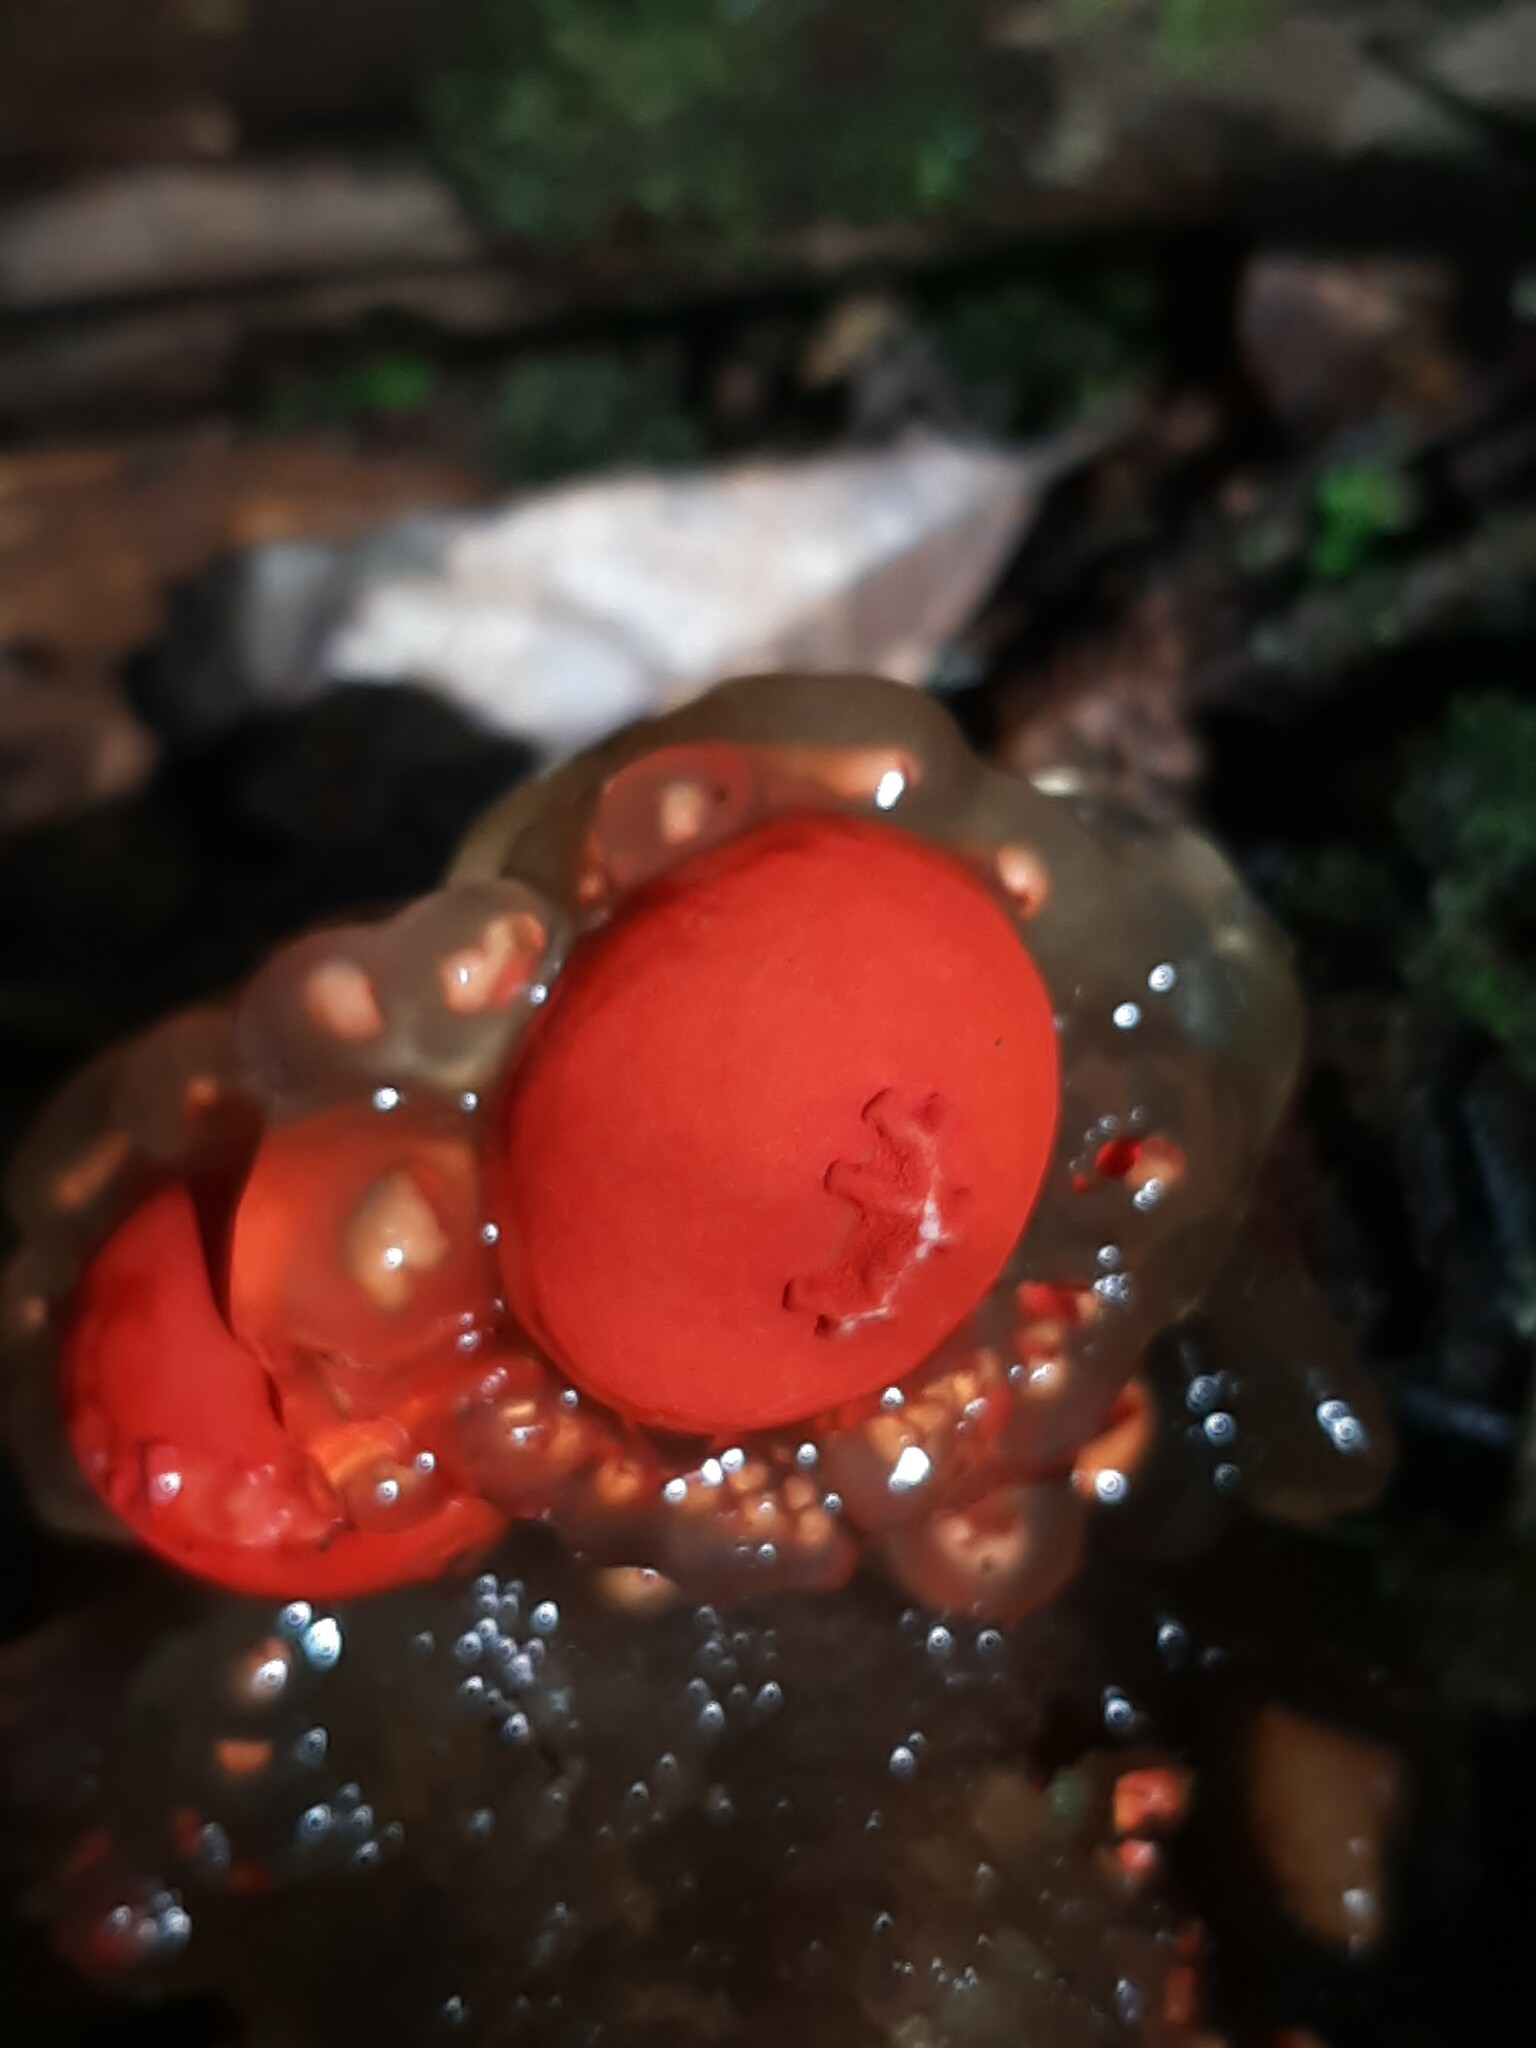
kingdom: Fungi
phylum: Basidiomycota
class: Agaricomycetes
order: Boletales
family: Calostomataceae
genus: Calostoma
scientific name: Calostoma cinnabarinum
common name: Stalked puffball-in-aspic
